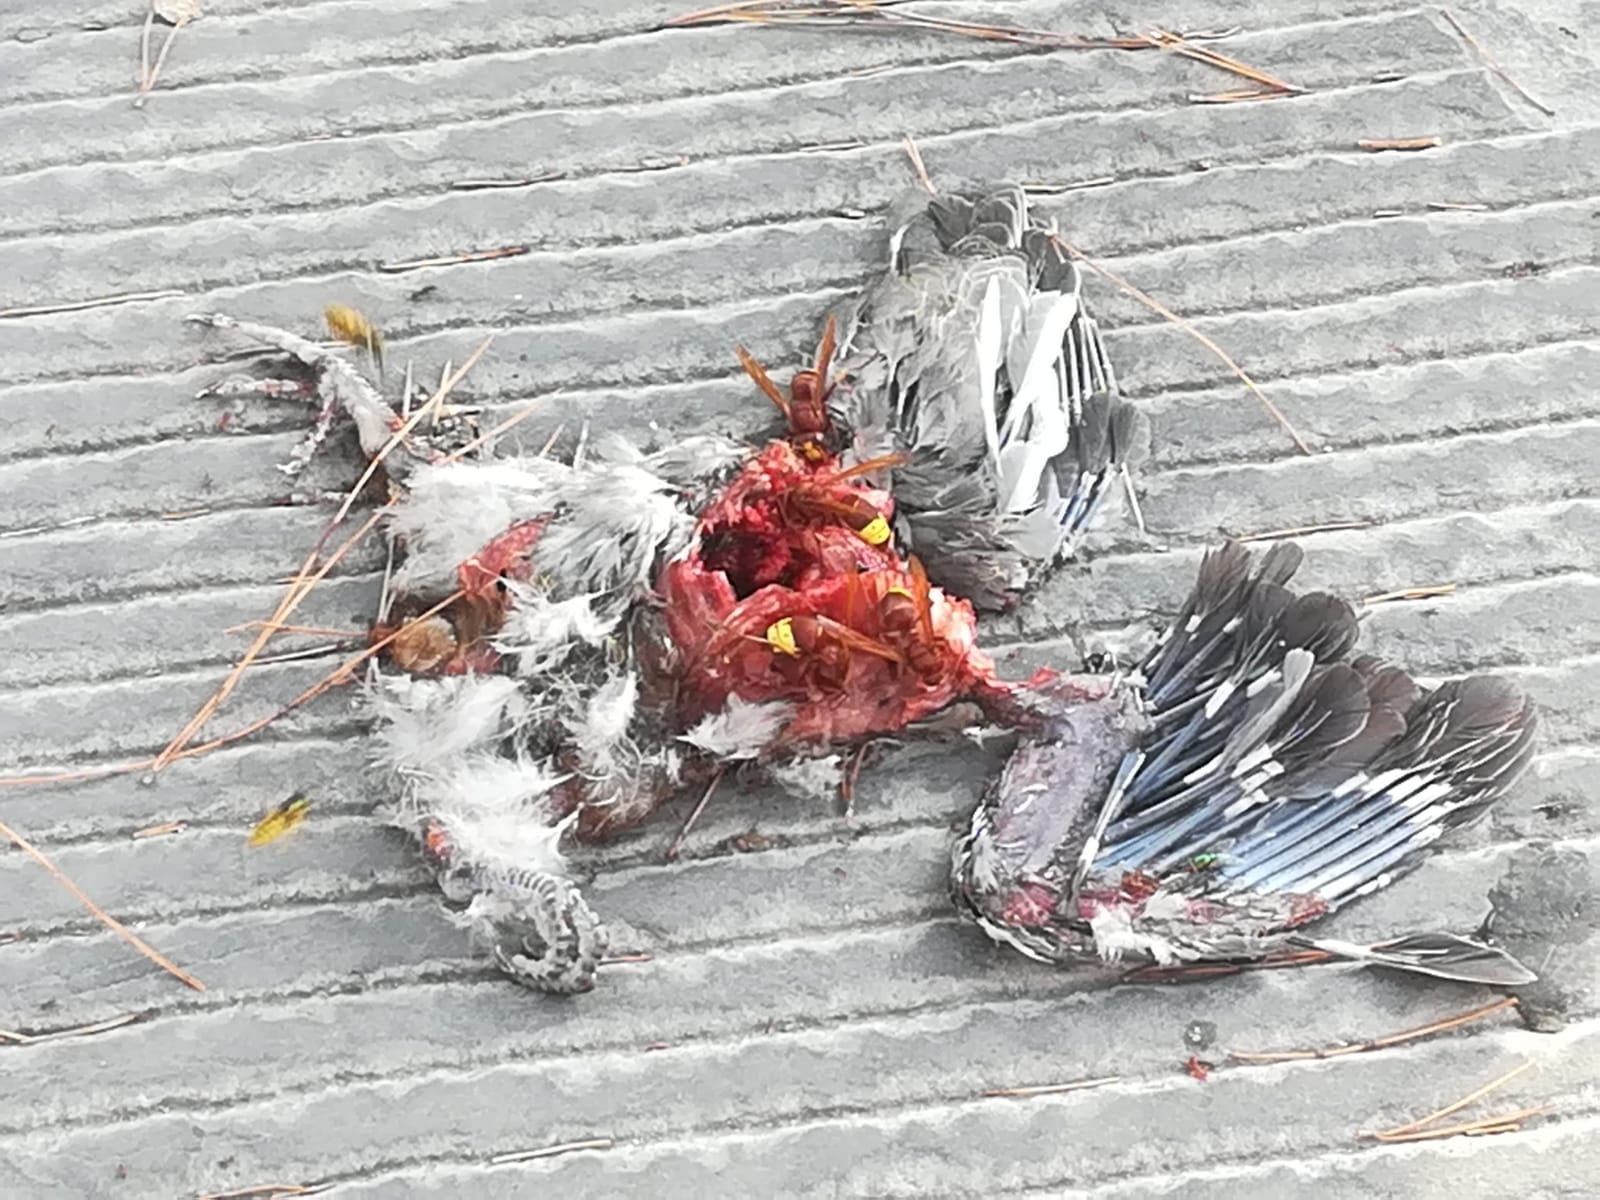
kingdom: Animalia
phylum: Arthropoda
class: Insecta
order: Hymenoptera
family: Vespidae
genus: Vespa
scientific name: Vespa orientalis
